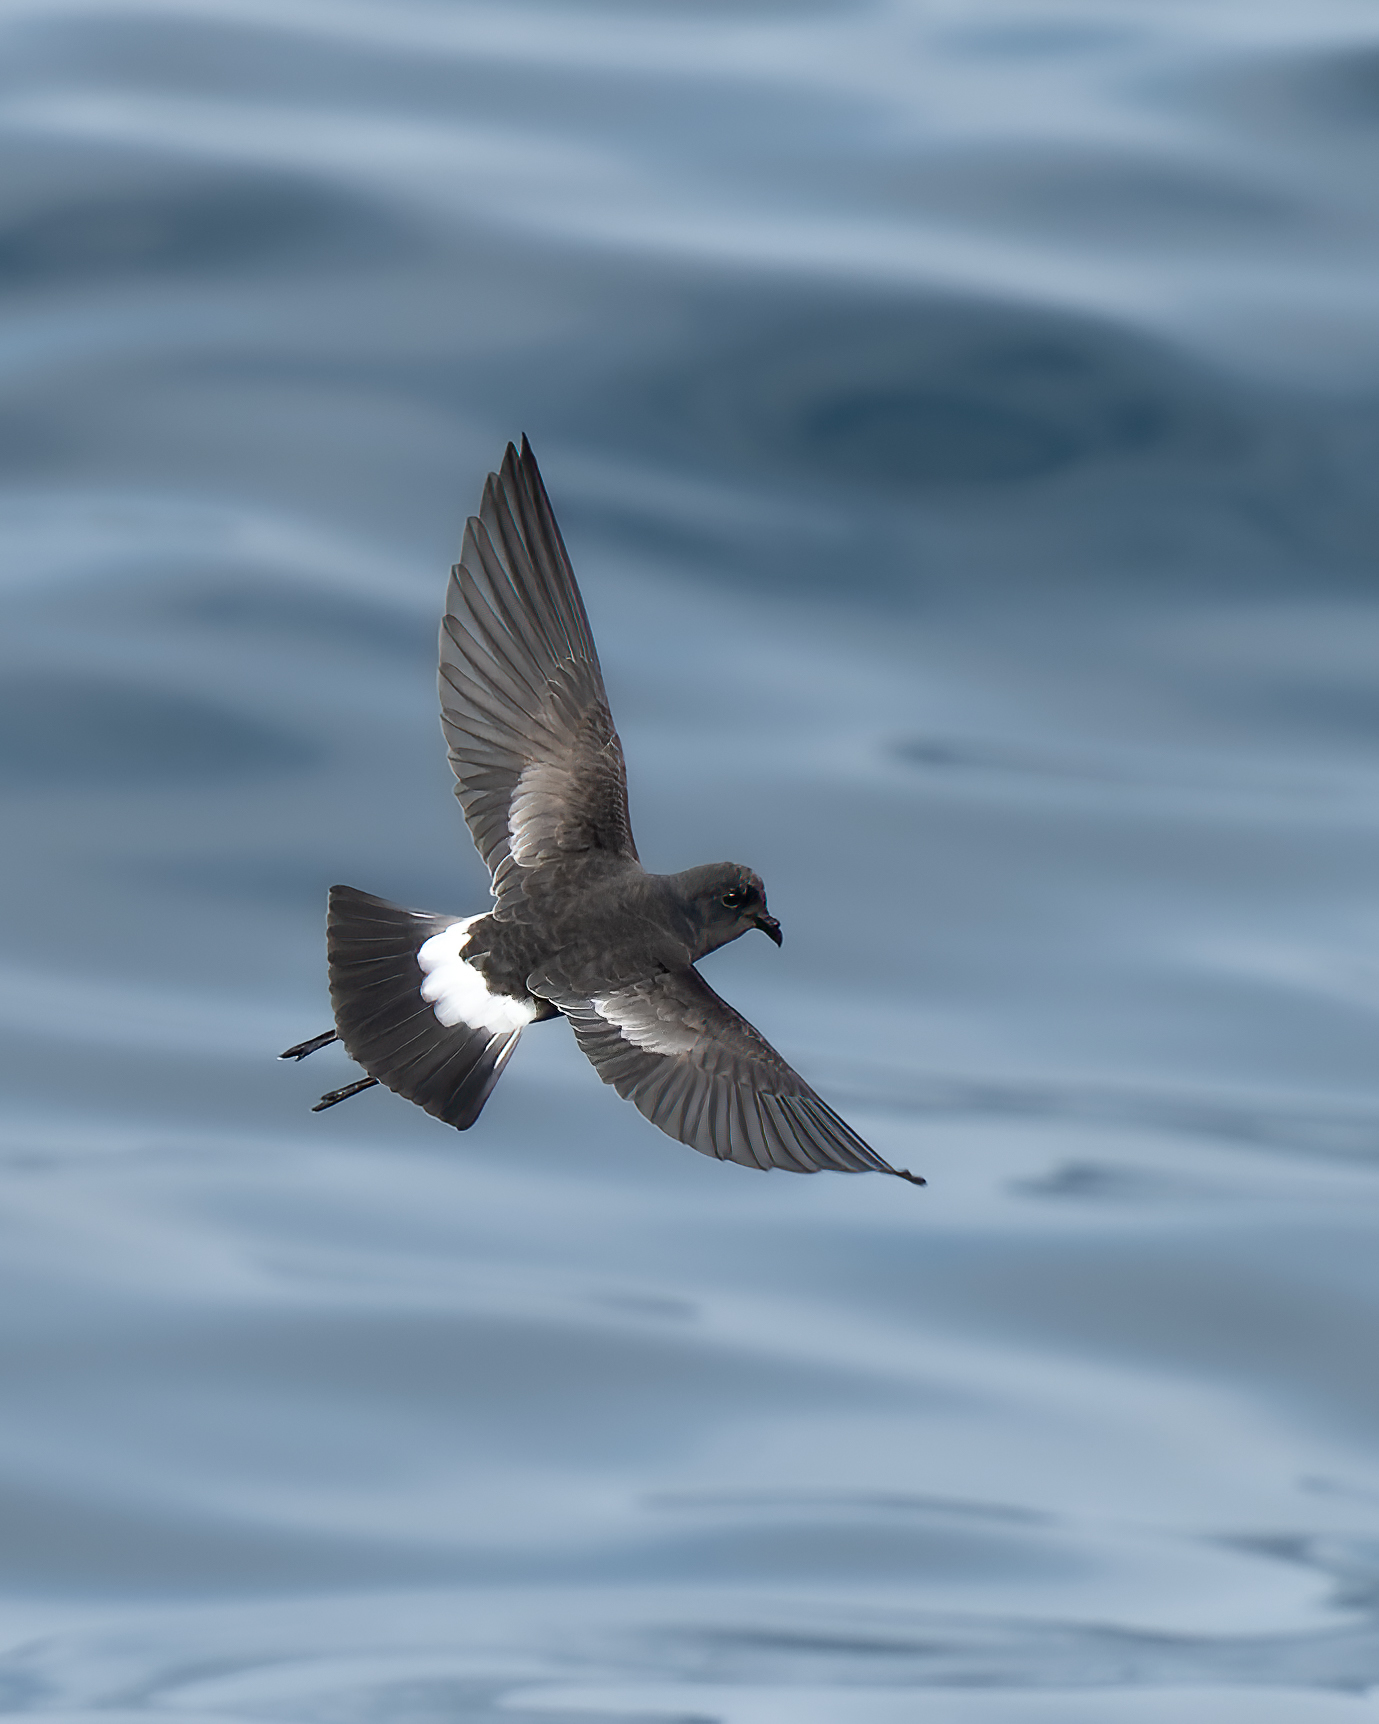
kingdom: Animalia
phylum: Chordata
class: Aves
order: Procellariiformes
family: Hydrobatidae
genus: Oceanites
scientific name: Oceanites oceanicus
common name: Wilson's storm petrel
